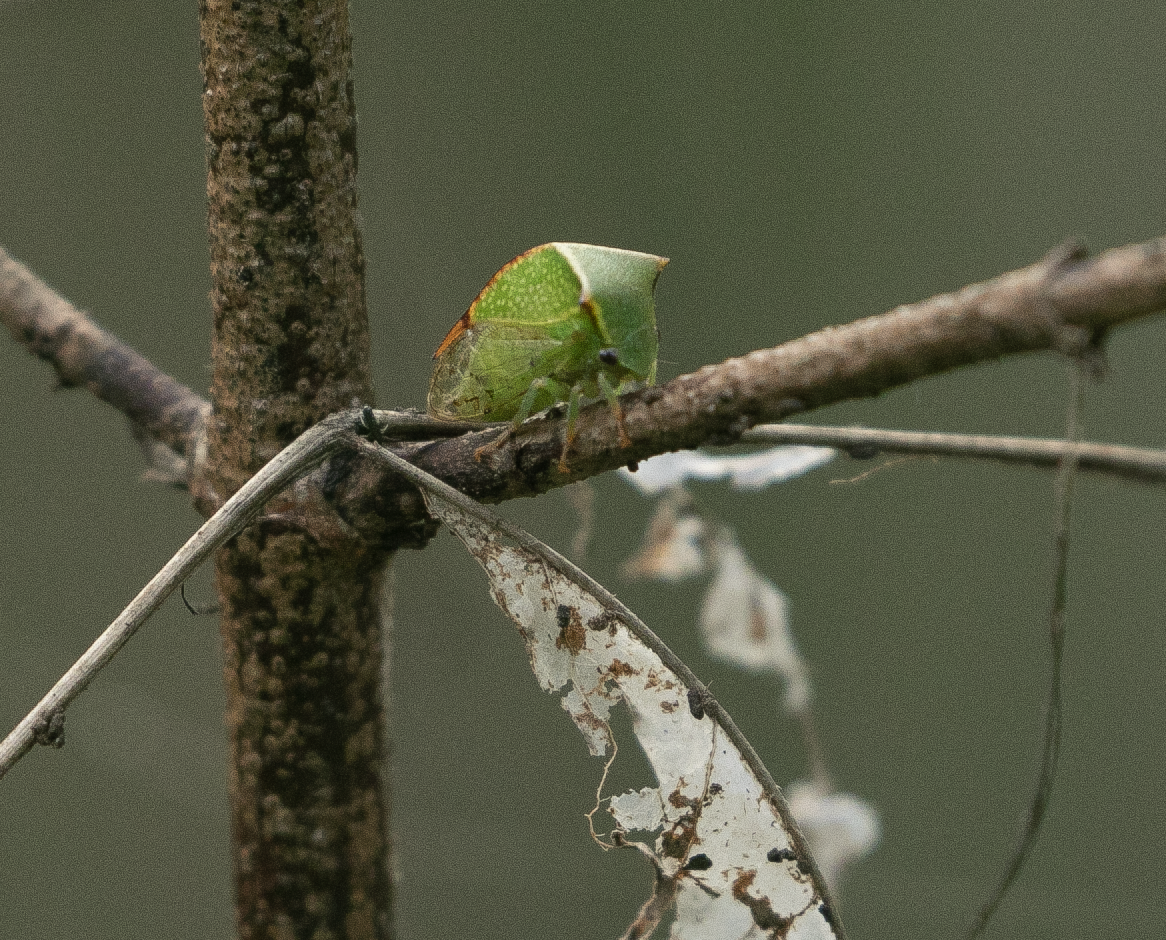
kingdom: Animalia
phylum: Arthropoda
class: Insecta
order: Hemiptera
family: Membracidae
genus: Stictocephala
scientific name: Stictocephala bisonia
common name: American buffalo treehopper
